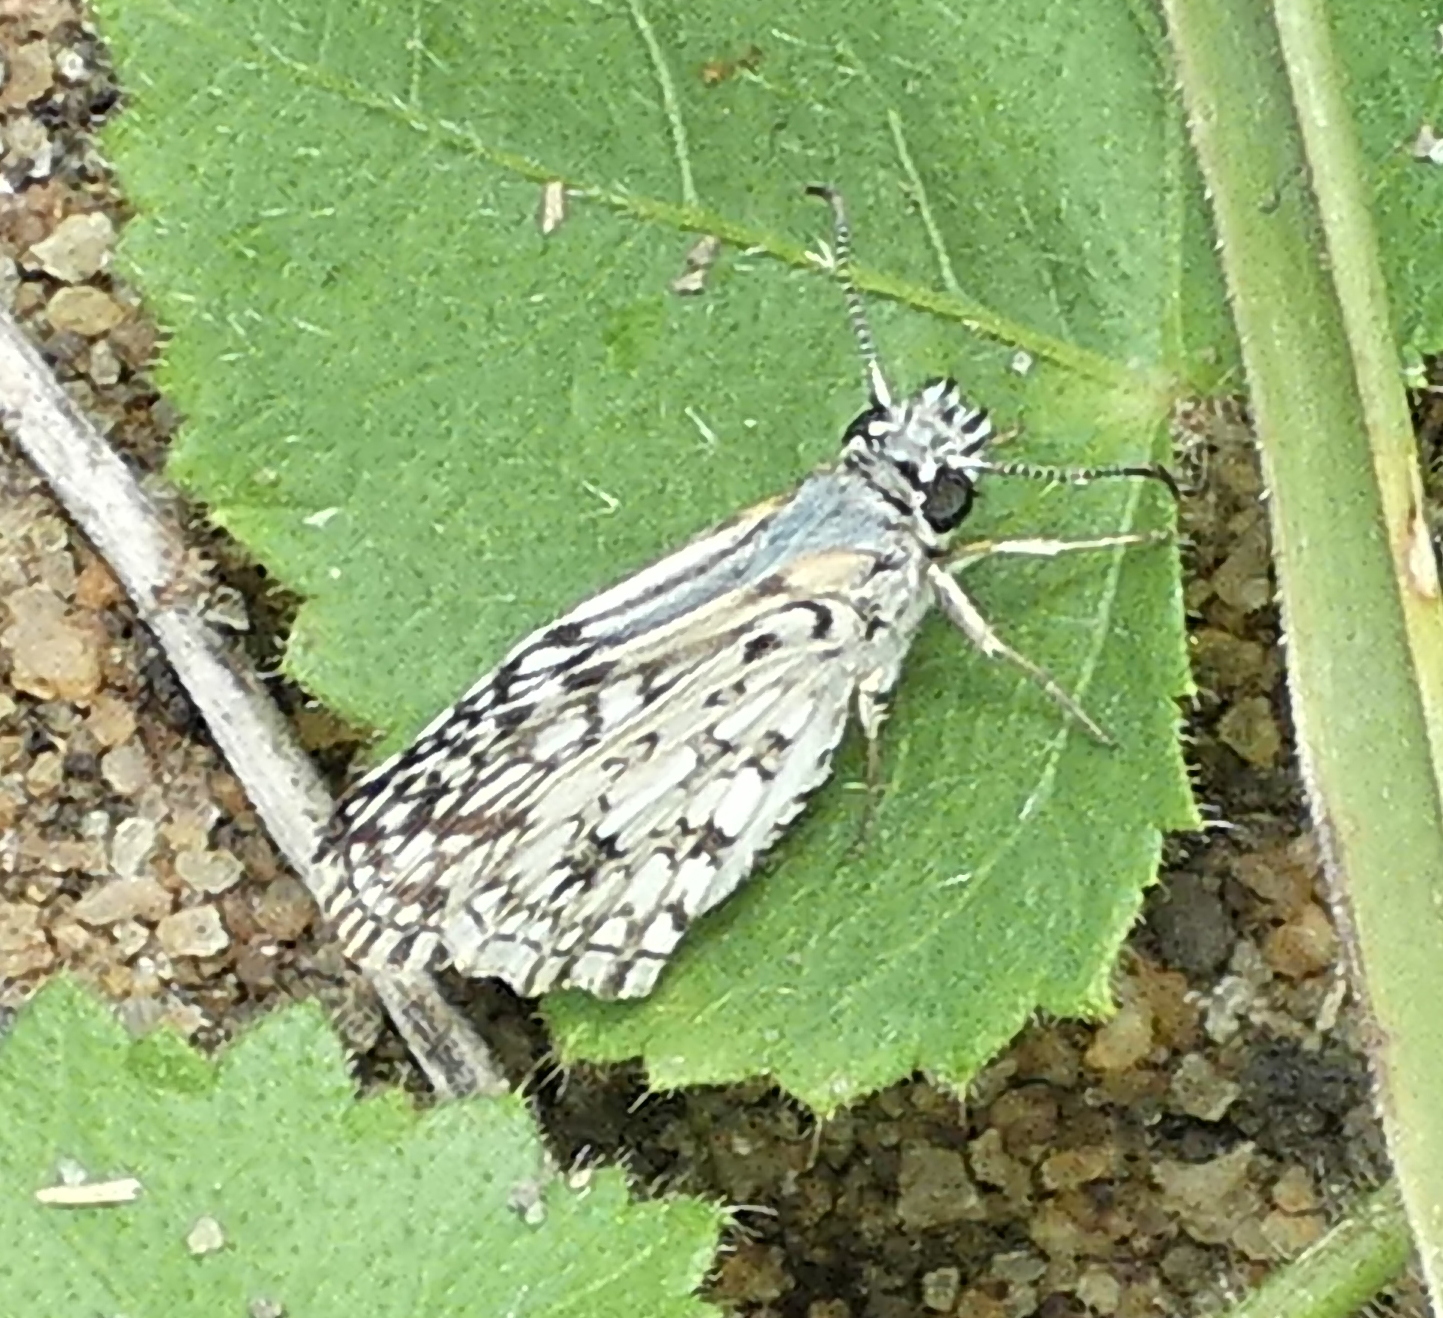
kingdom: Animalia
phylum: Arthropoda
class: Insecta
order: Lepidoptera
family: Hesperiidae
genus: Pyrgus
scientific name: Pyrgus oileus
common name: Tropical checkered-skipper
